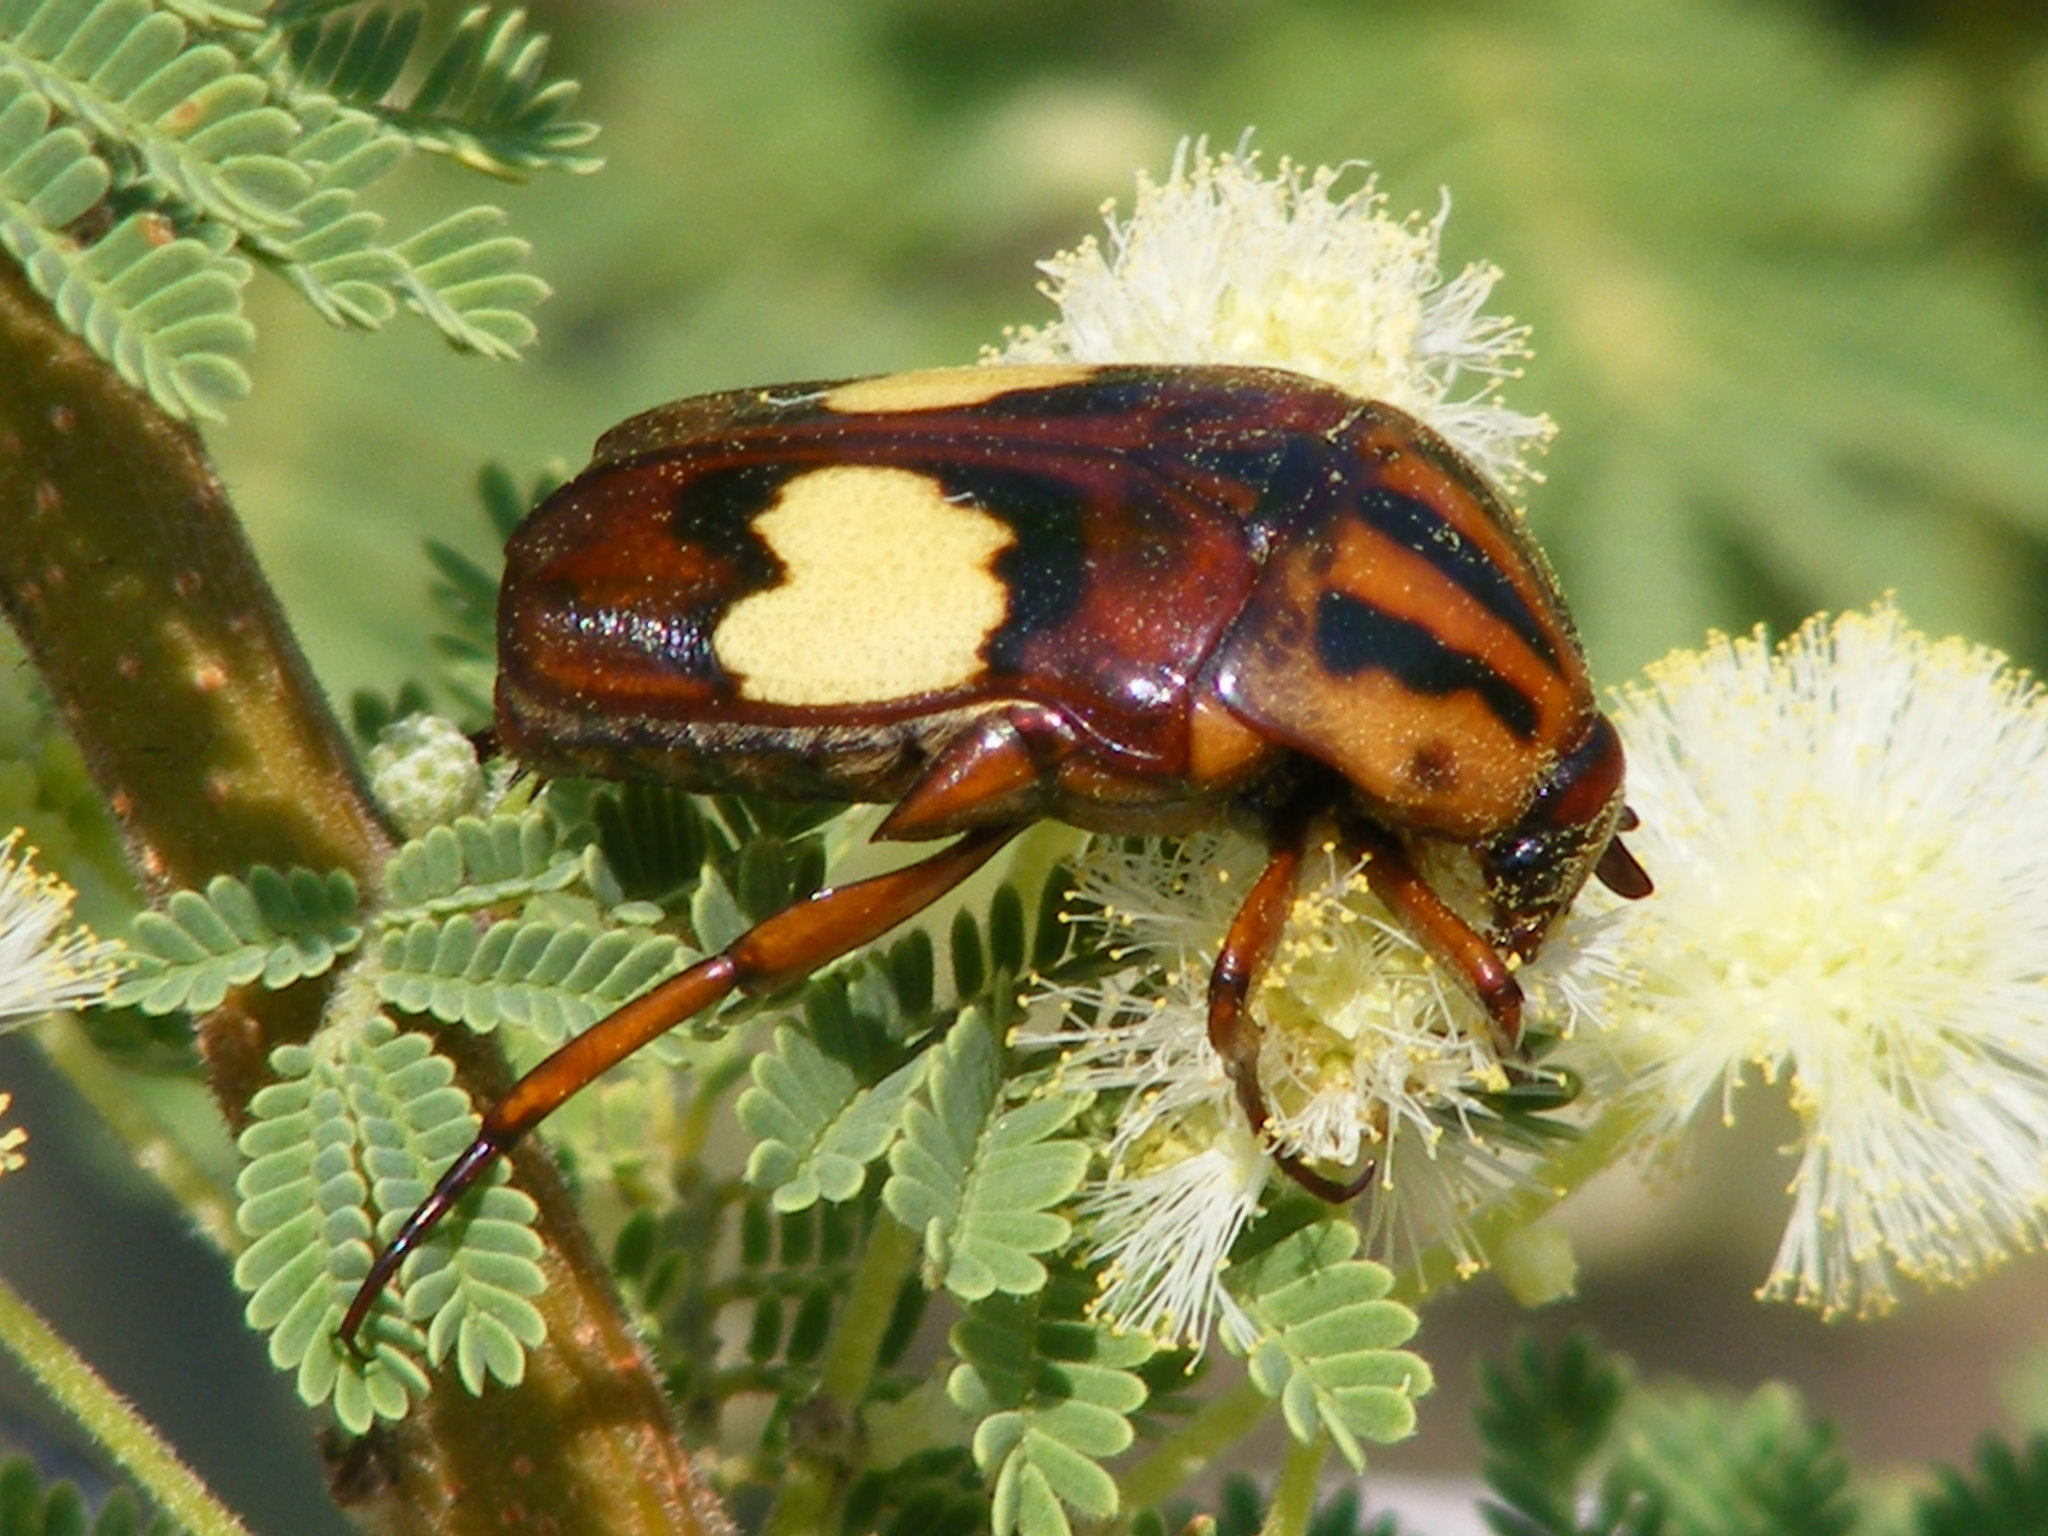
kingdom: Animalia
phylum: Arthropoda
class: Insecta
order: Coleoptera
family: Scarabaeidae
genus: Pedinorrhina
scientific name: Pedinorrhina
